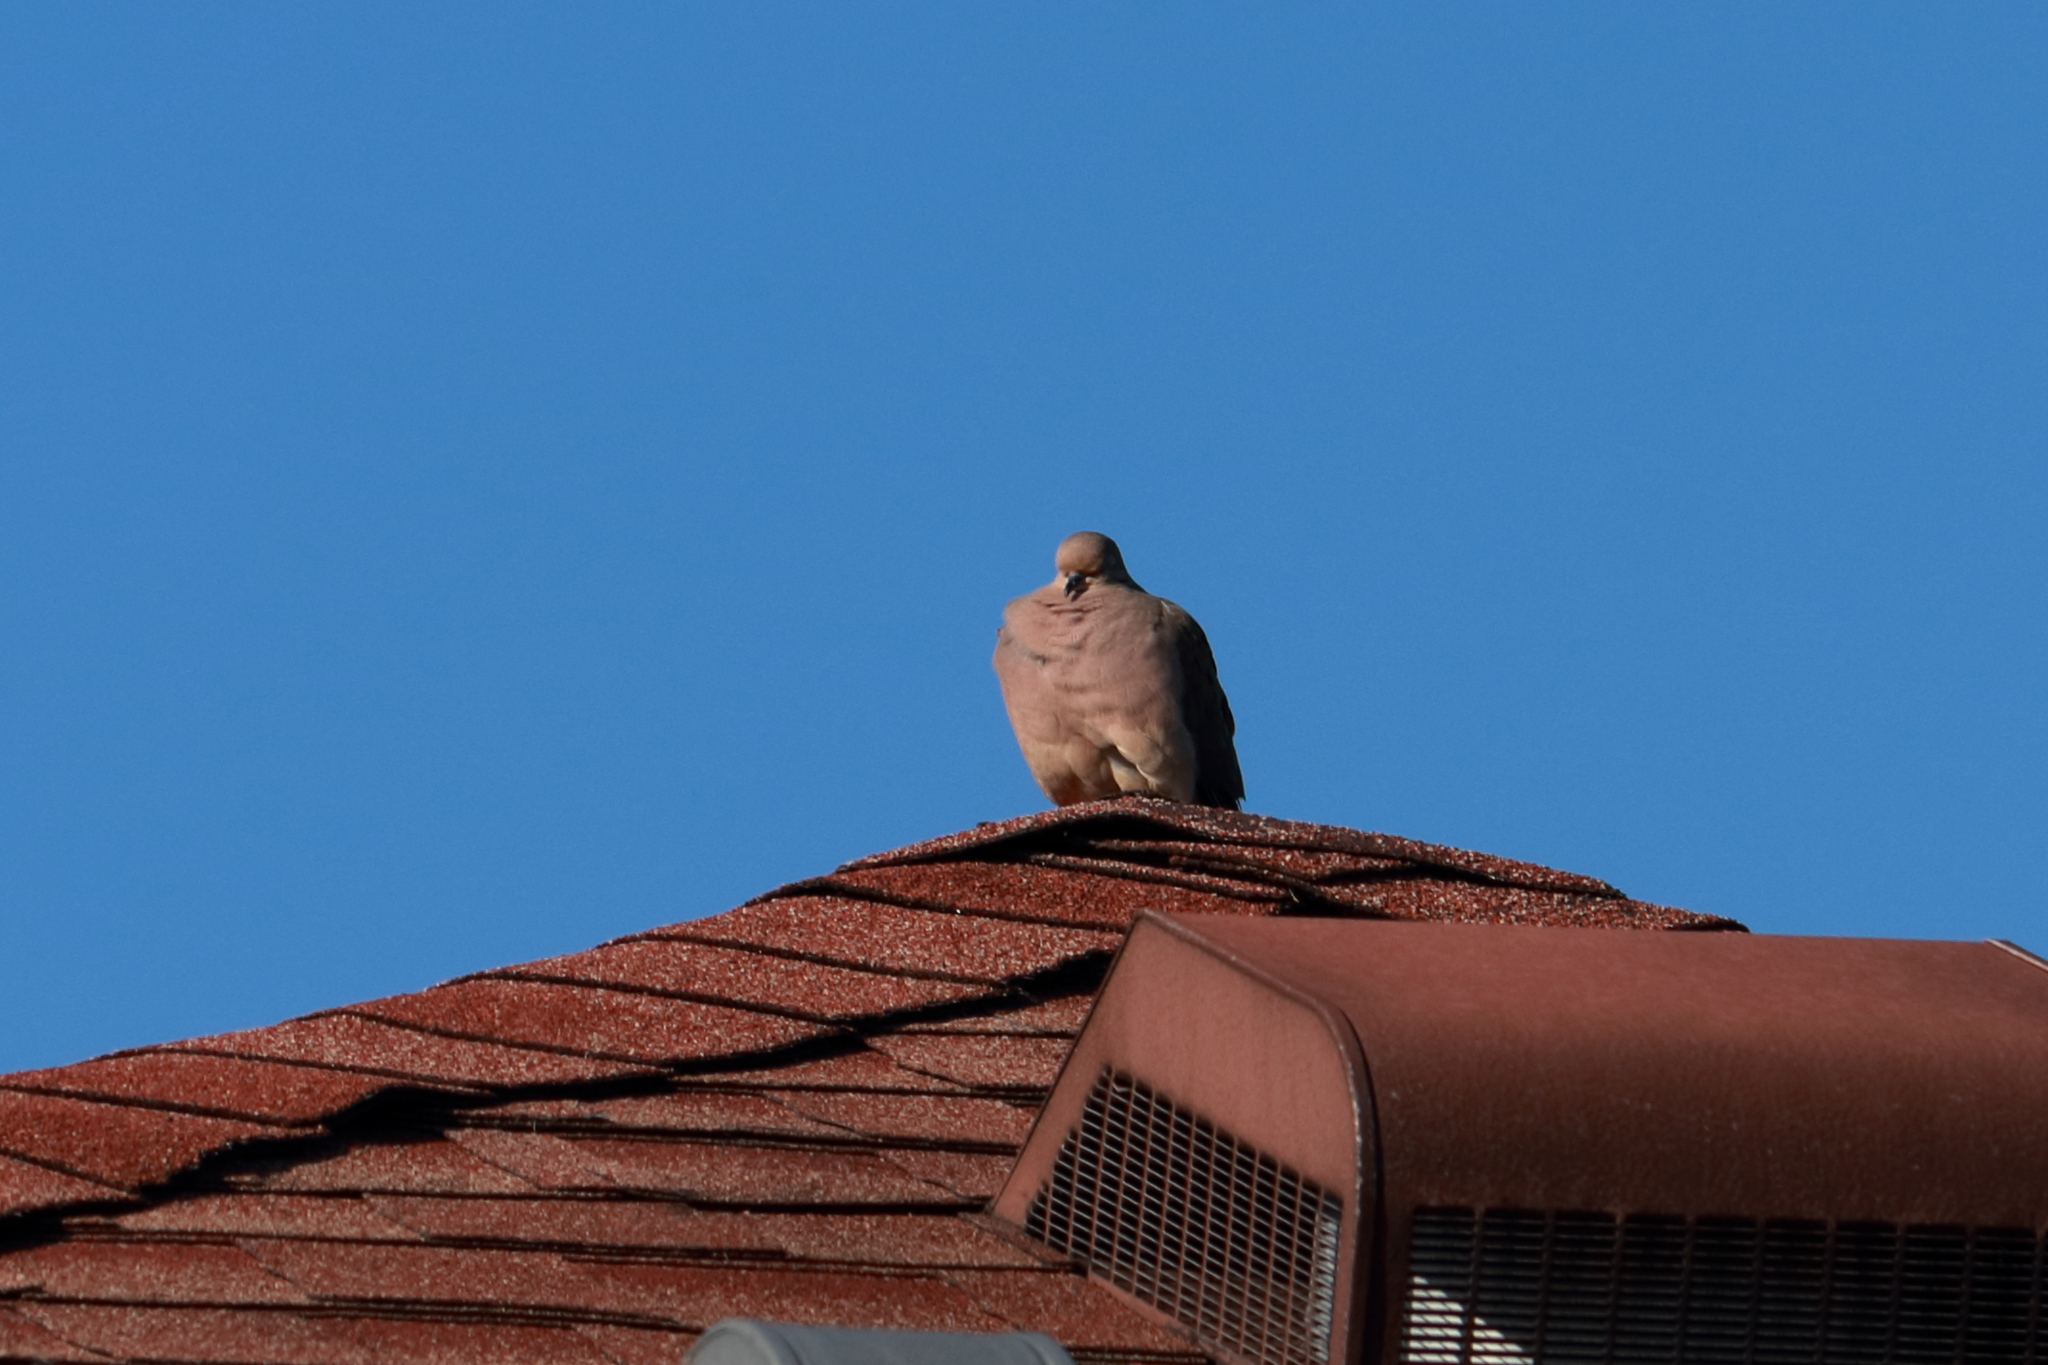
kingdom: Animalia
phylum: Chordata
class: Aves
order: Columbiformes
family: Columbidae
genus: Zenaida
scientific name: Zenaida macroura
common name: Mourning dove
